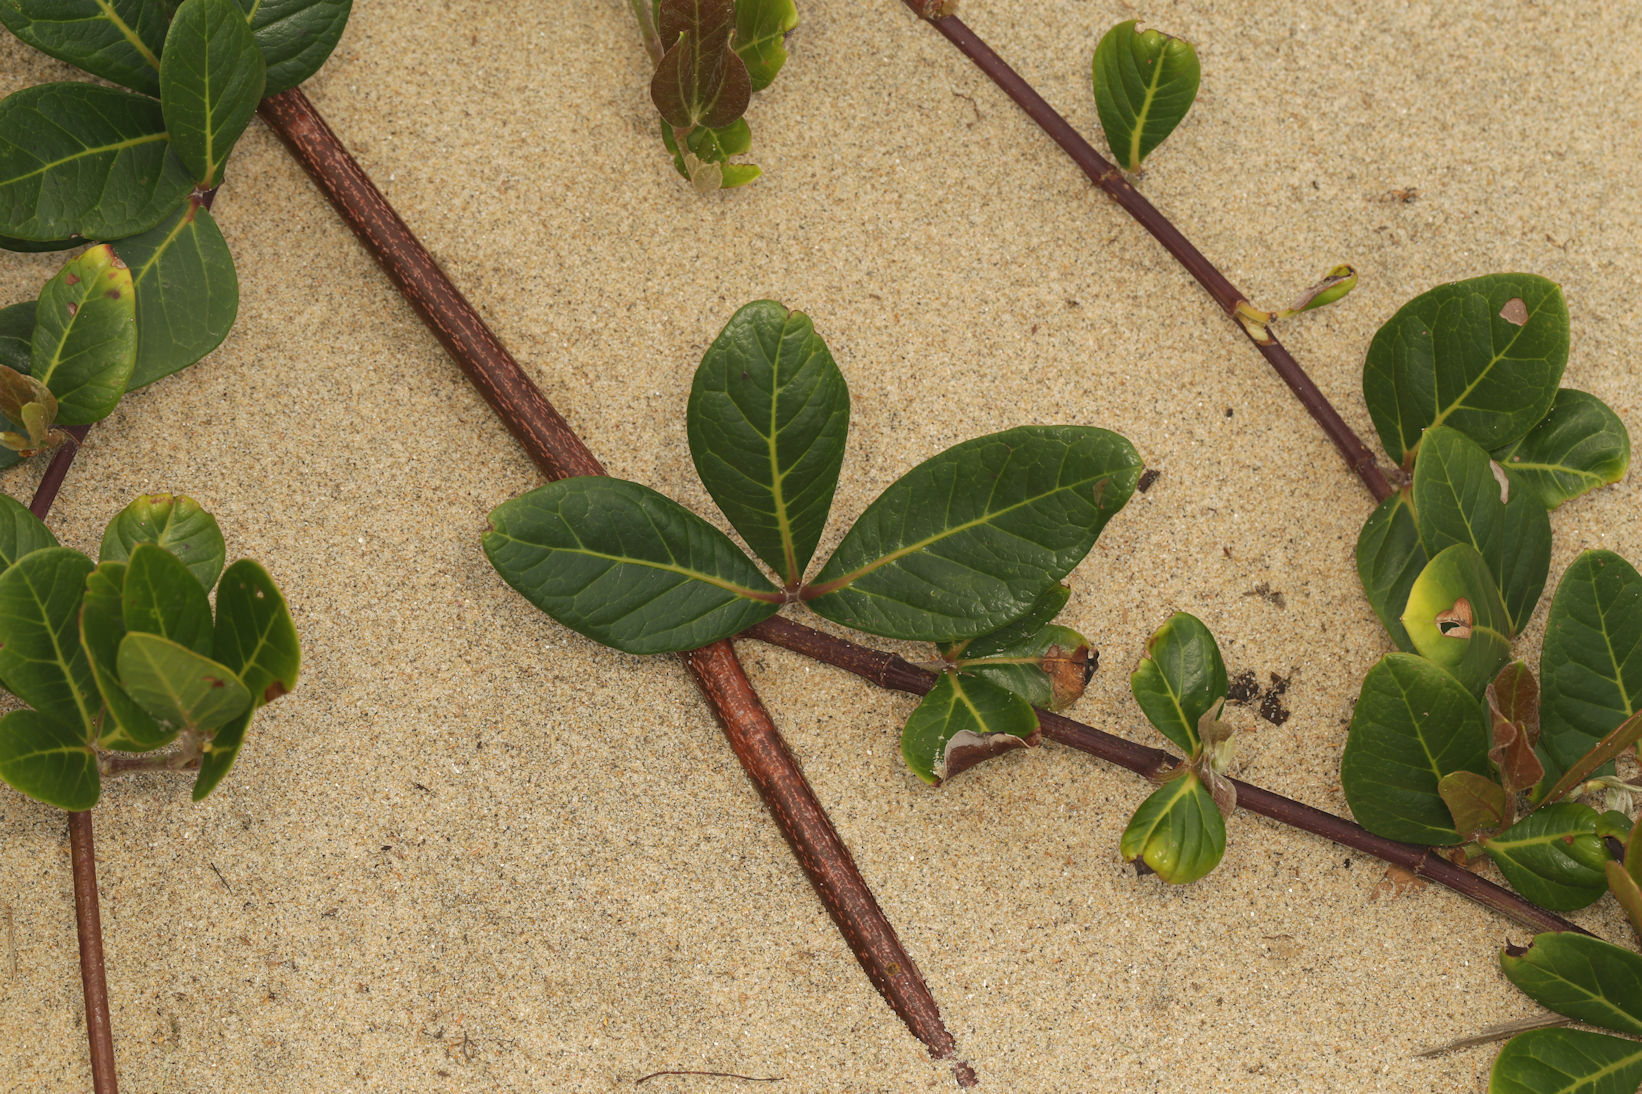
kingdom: Plantae
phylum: Tracheophyta
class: Magnoliopsida
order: Vitales
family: Vitaceae
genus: Rhoicissus
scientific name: Rhoicissus digitata
